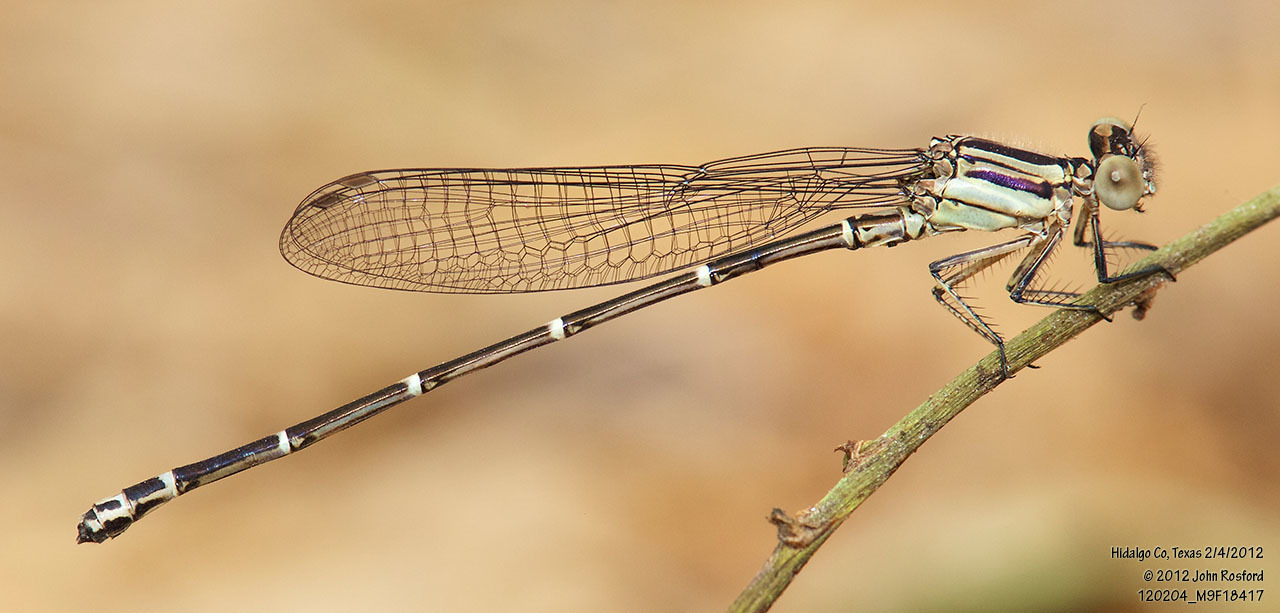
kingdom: Animalia
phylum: Arthropoda
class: Insecta
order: Odonata
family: Coenagrionidae
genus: Argia
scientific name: Argia translata
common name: Dusky dancer
